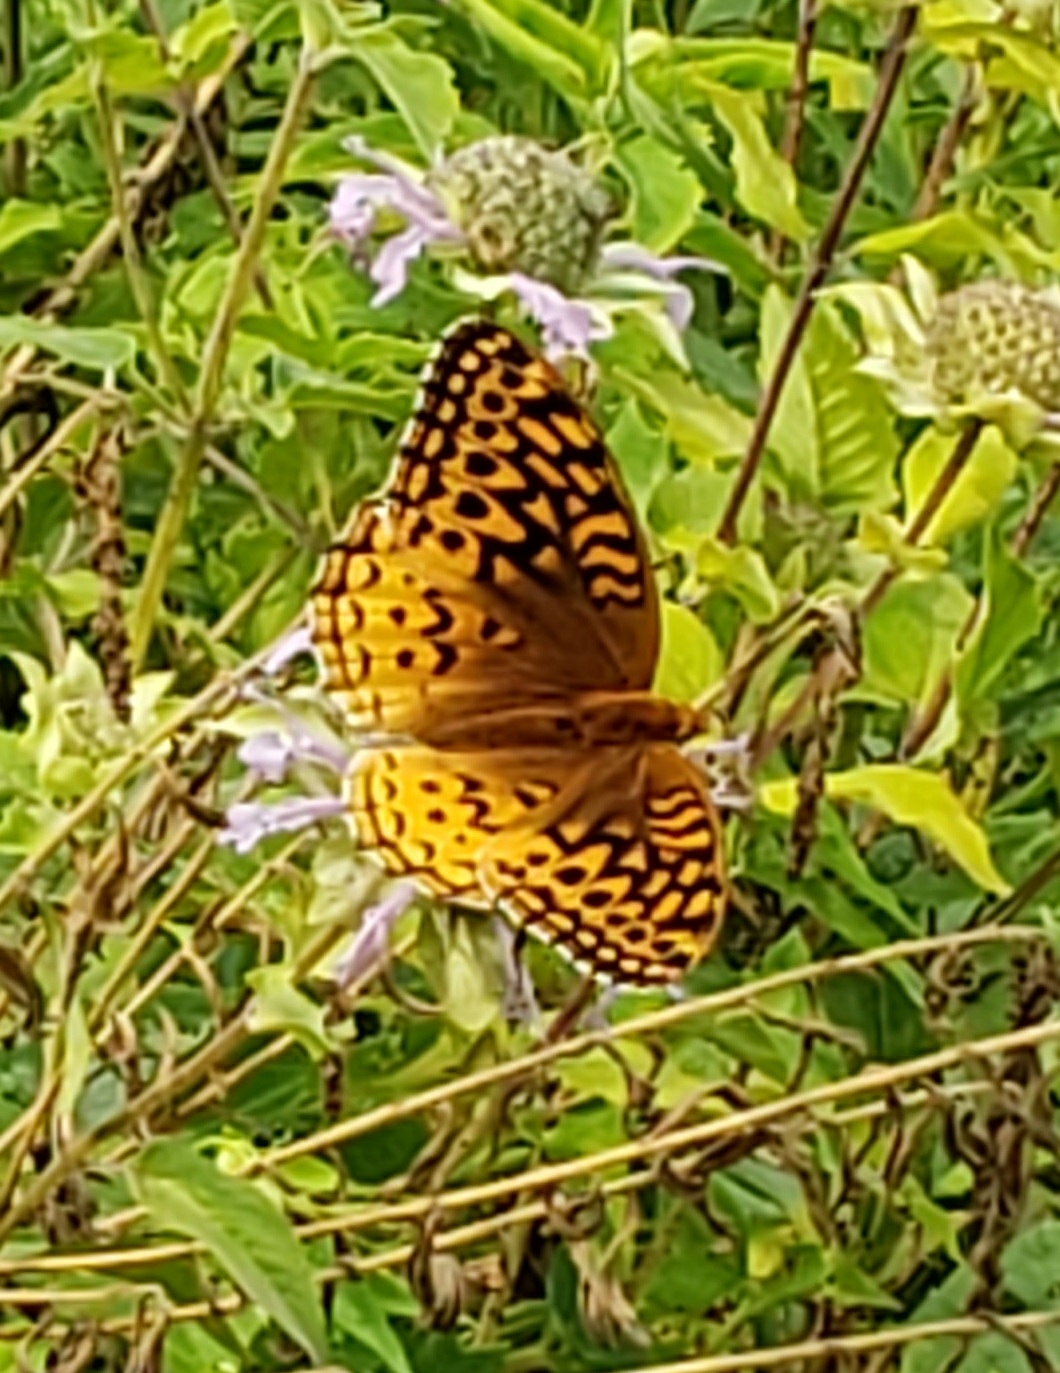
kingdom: Animalia
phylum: Arthropoda
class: Insecta
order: Lepidoptera
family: Nymphalidae
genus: Speyeria
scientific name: Speyeria cybele
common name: Great spangled fritillary
